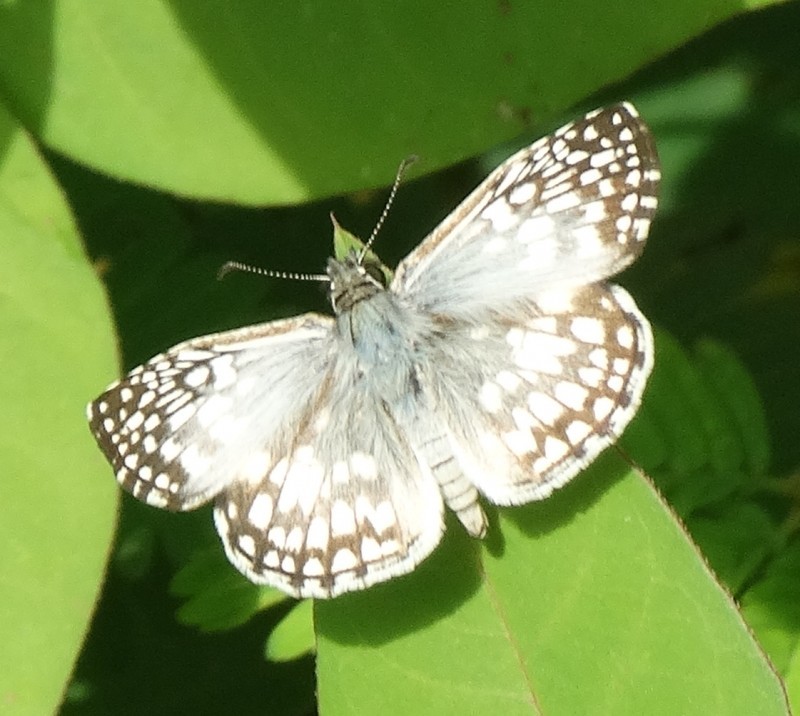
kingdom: Animalia
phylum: Arthropoda
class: Insecta
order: Lepidoptera
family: Hesperiidae
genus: Pyrgus
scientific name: Pyrgus oileus
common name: Tropical checkered-skipper
